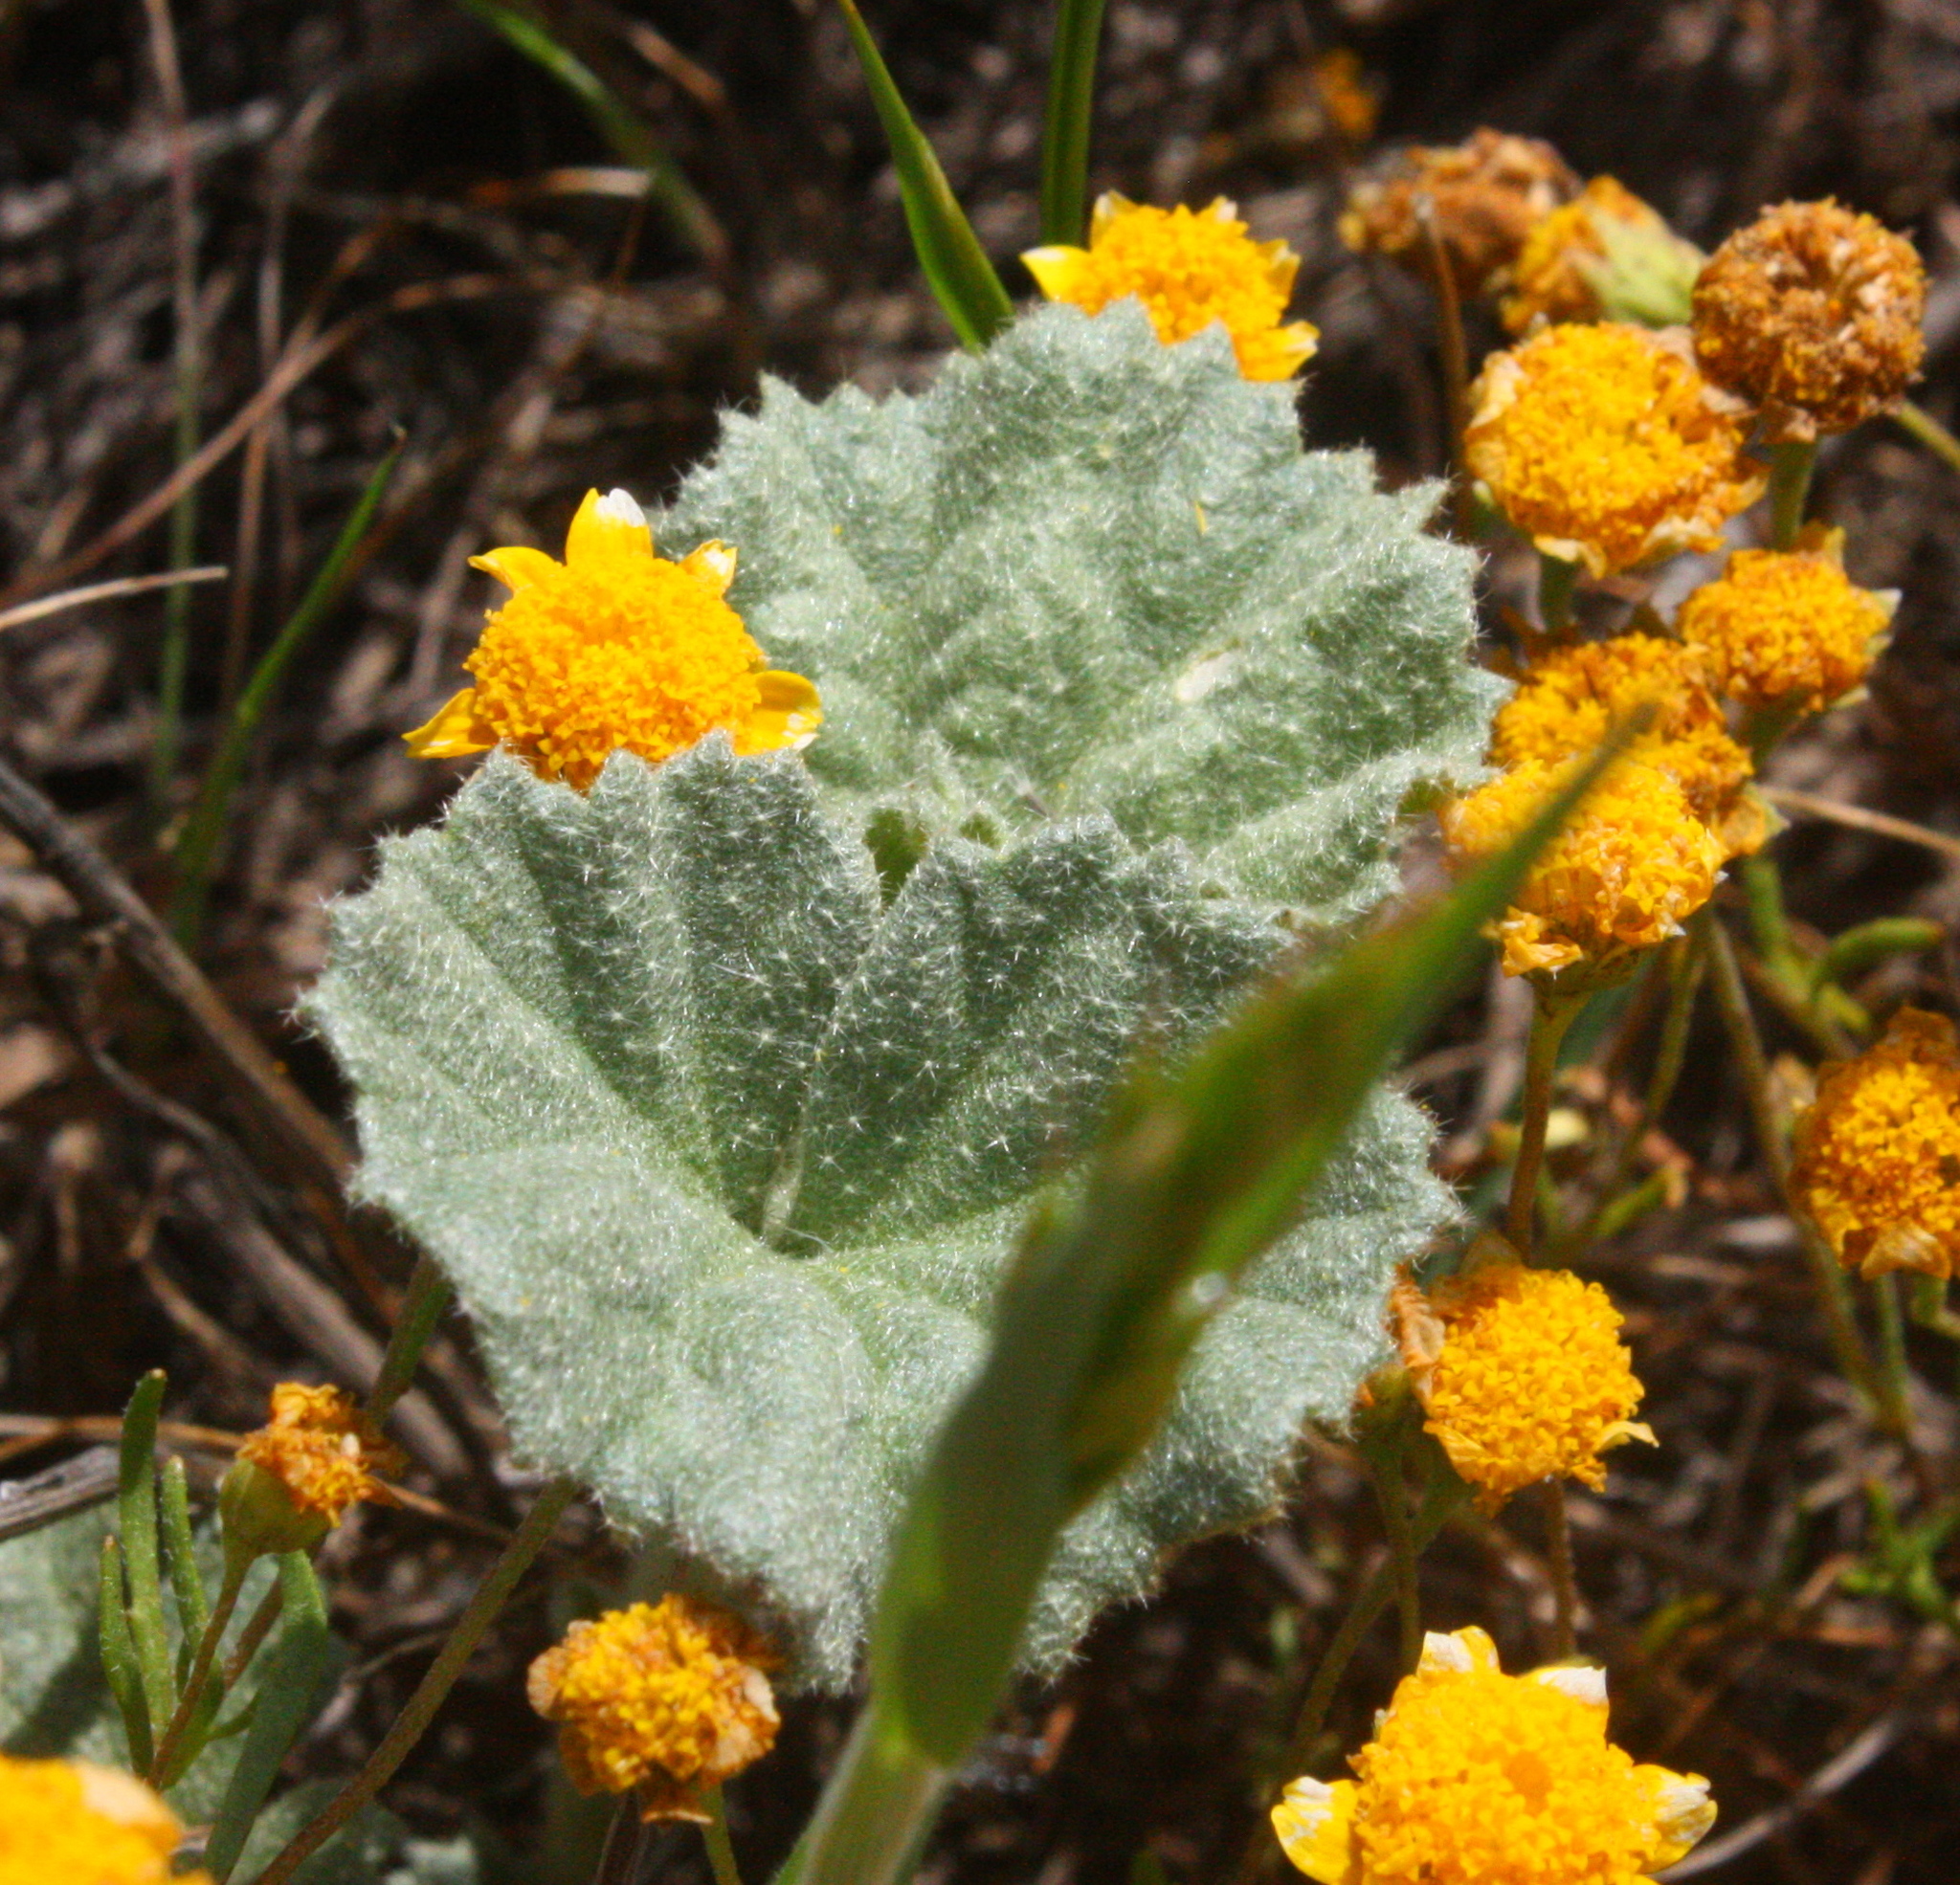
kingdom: Plantae
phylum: Tracheophyta
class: Magnoliopsida
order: Malvales
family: Malvaceae
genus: Malvella
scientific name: Malvella leprosa
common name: Alkali-mallow
